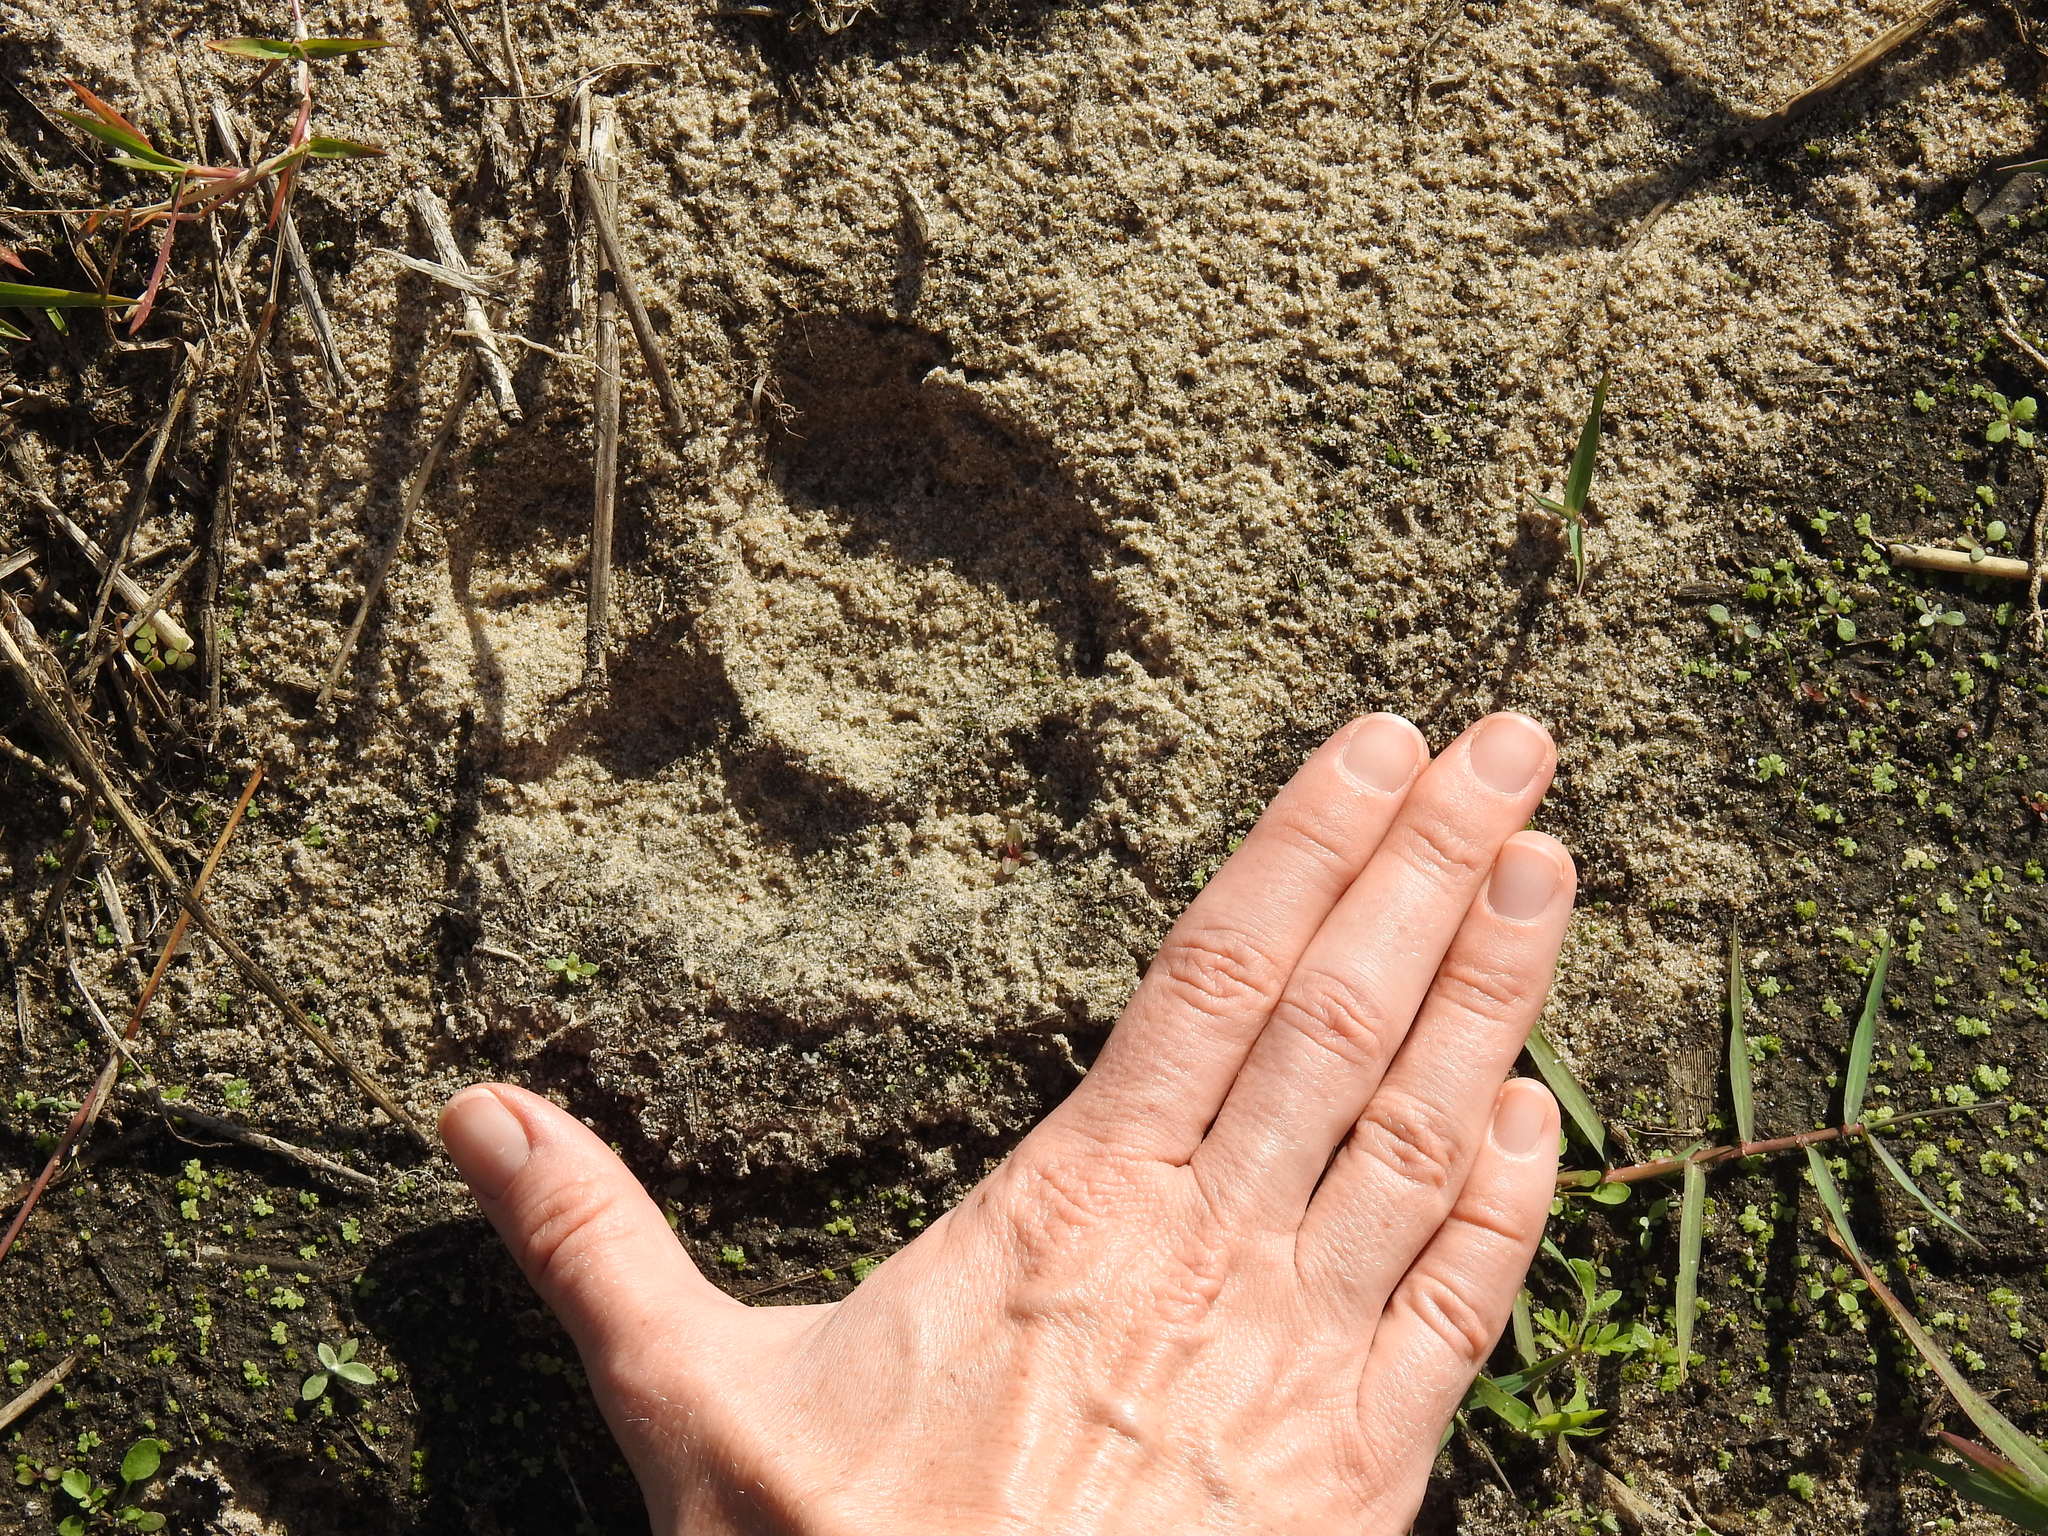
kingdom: Animalia
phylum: Chordata
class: Mammalia
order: Carnivora
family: Felidae
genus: Puma
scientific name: Puma concolor
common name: Puma
